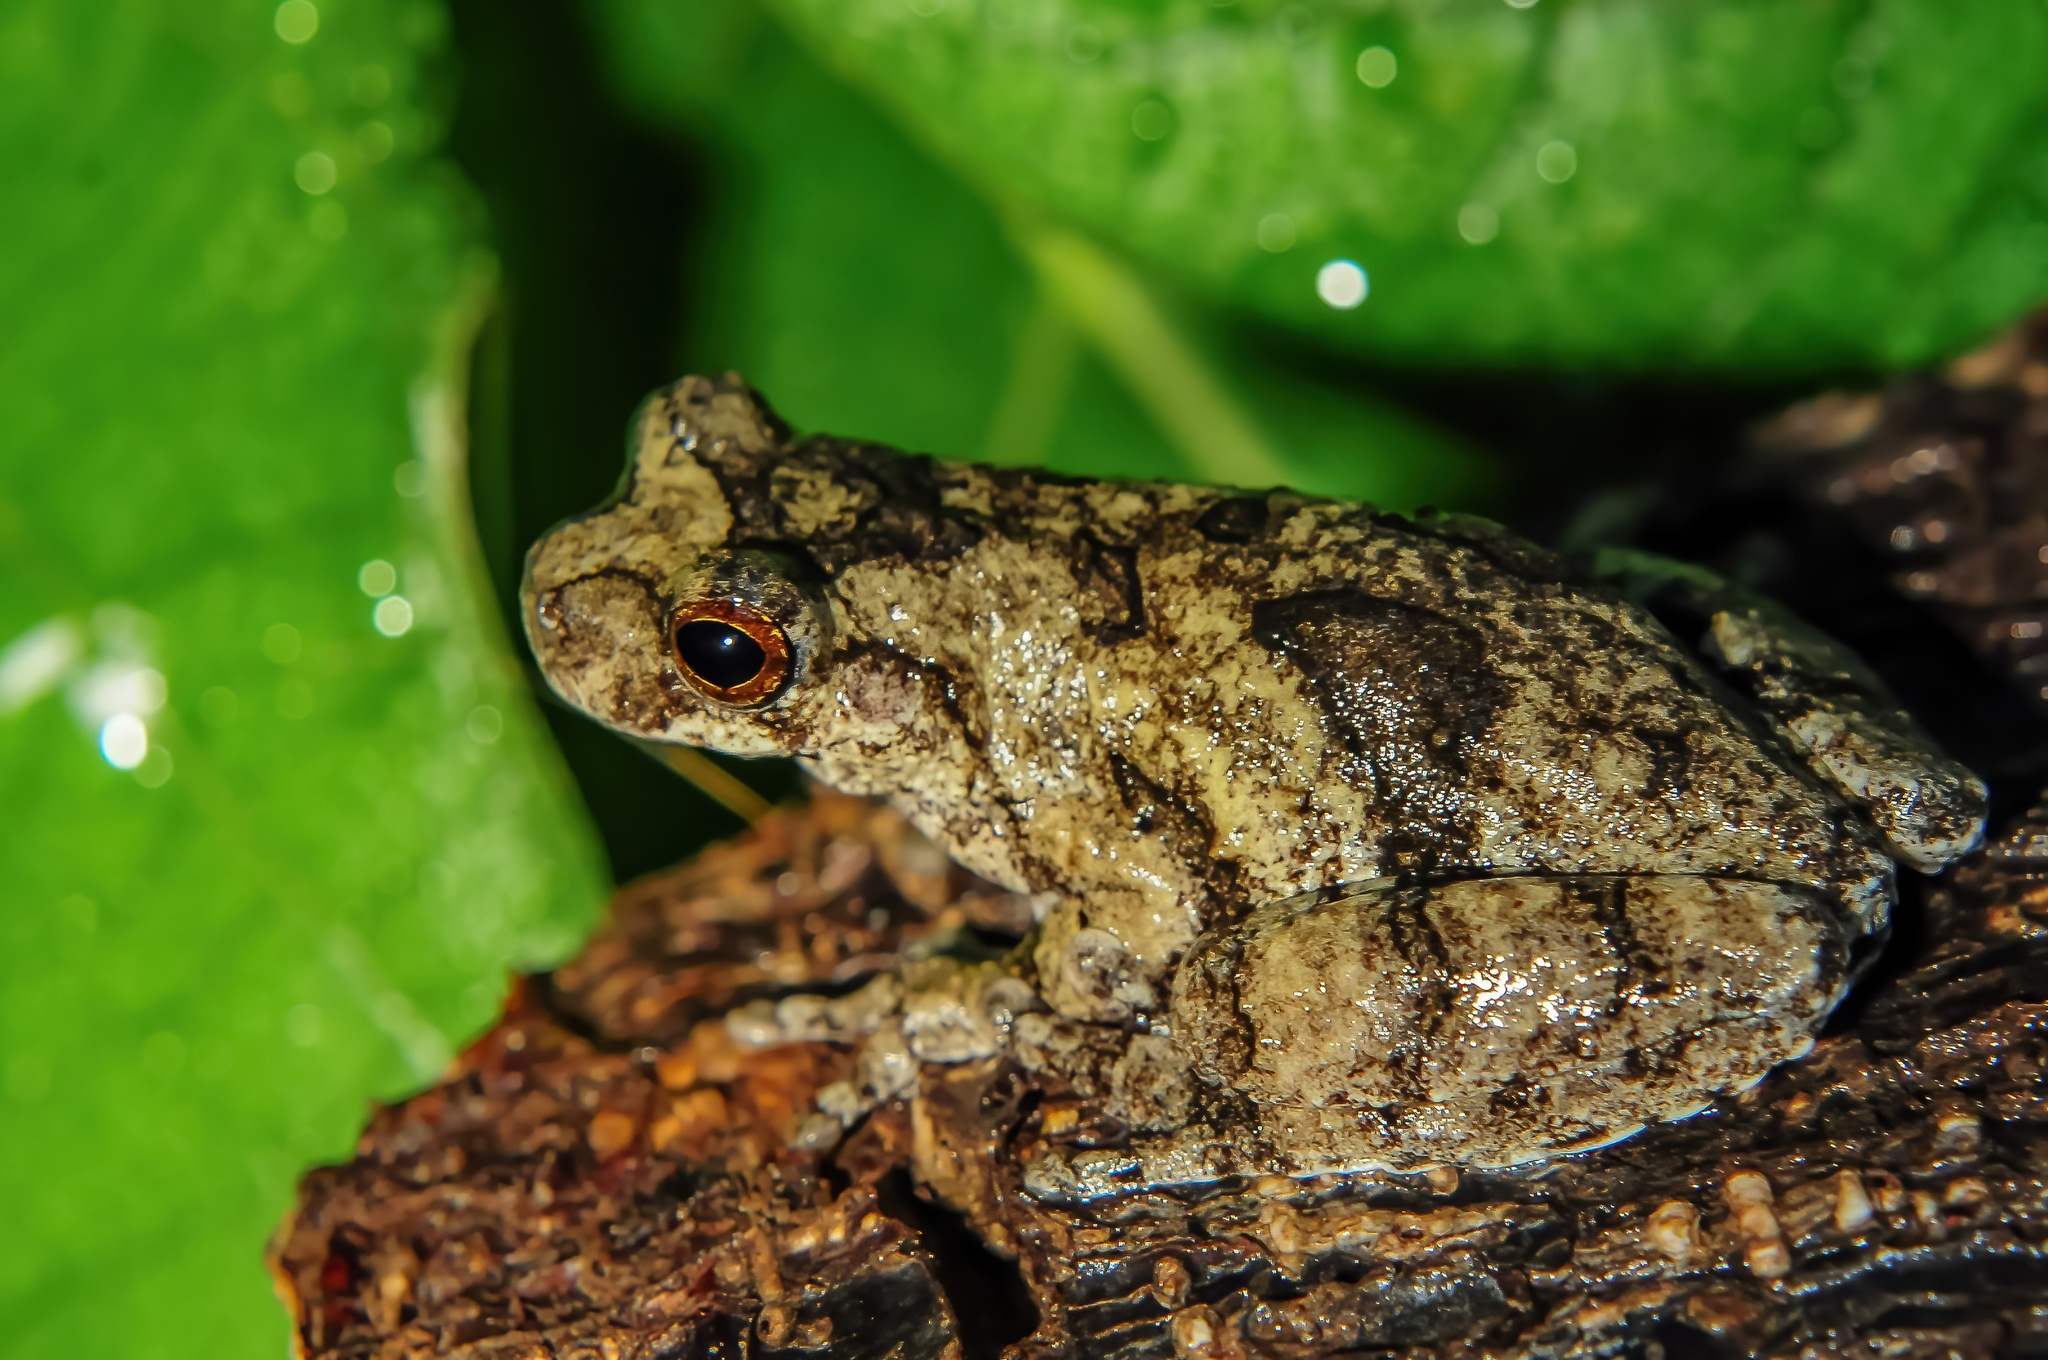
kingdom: Animalia
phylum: Chordata
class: Amphibia
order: Anura
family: Hylidae
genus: Dendropsophus
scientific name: Dendropsophus melanargyreus
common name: Interior treefrog
